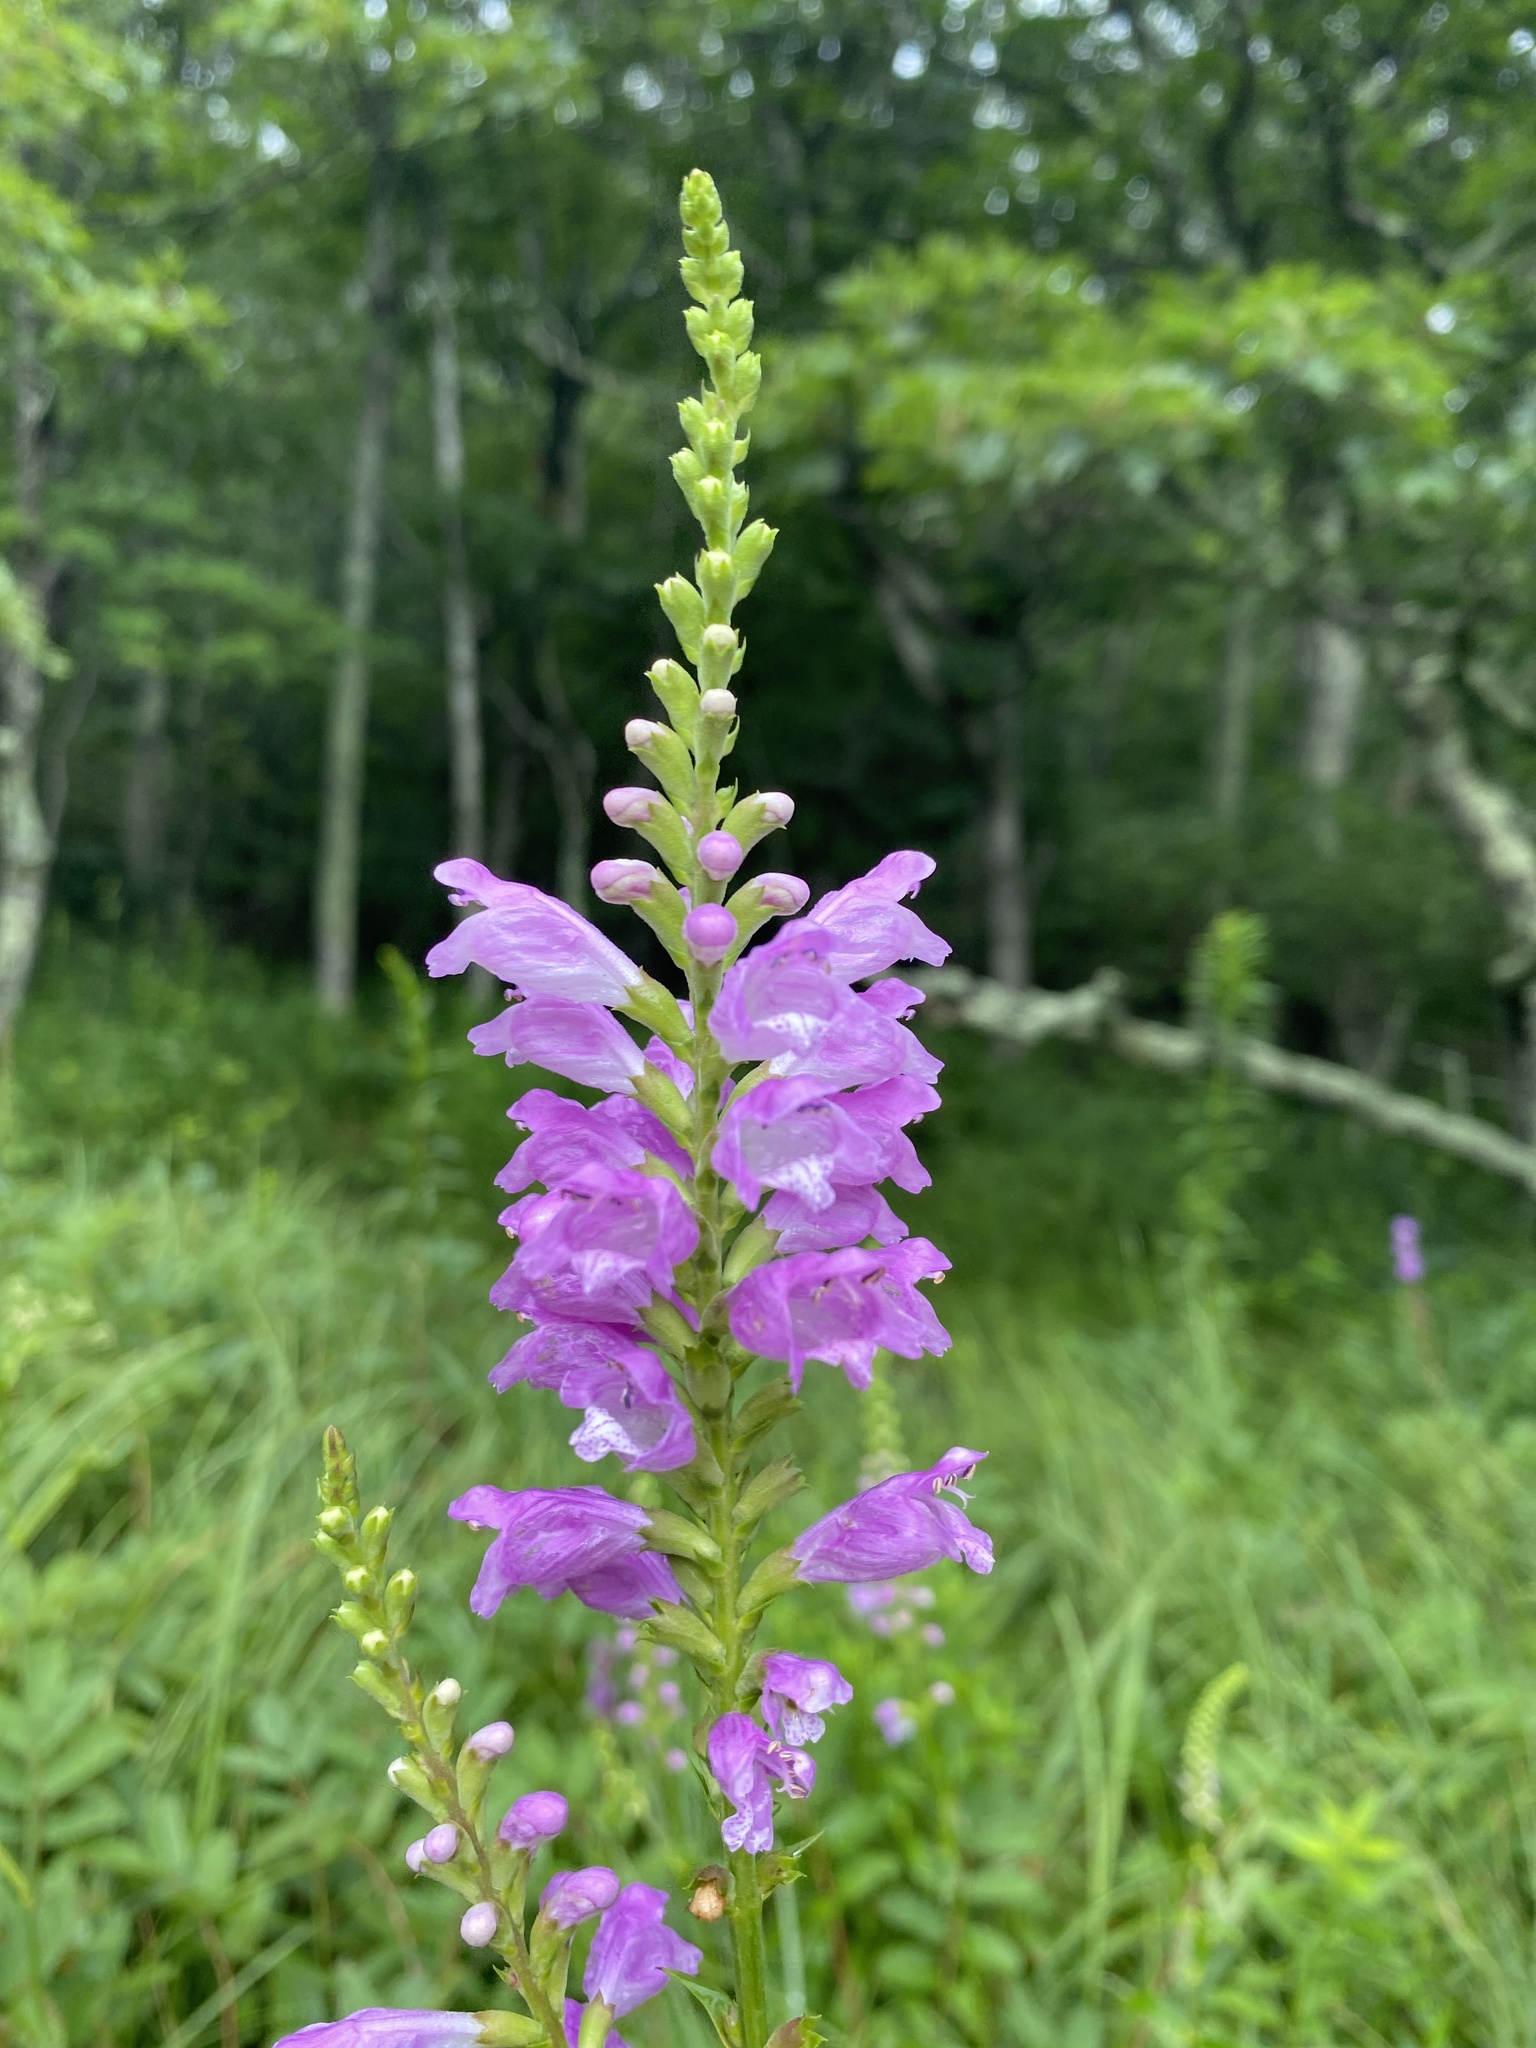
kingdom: Plantae
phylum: Tracheophyta
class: Magnoliopsida
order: Lamiales
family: Lamiaceae
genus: Physostegia
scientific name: Physostegia virginiana
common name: Obedient-plant
